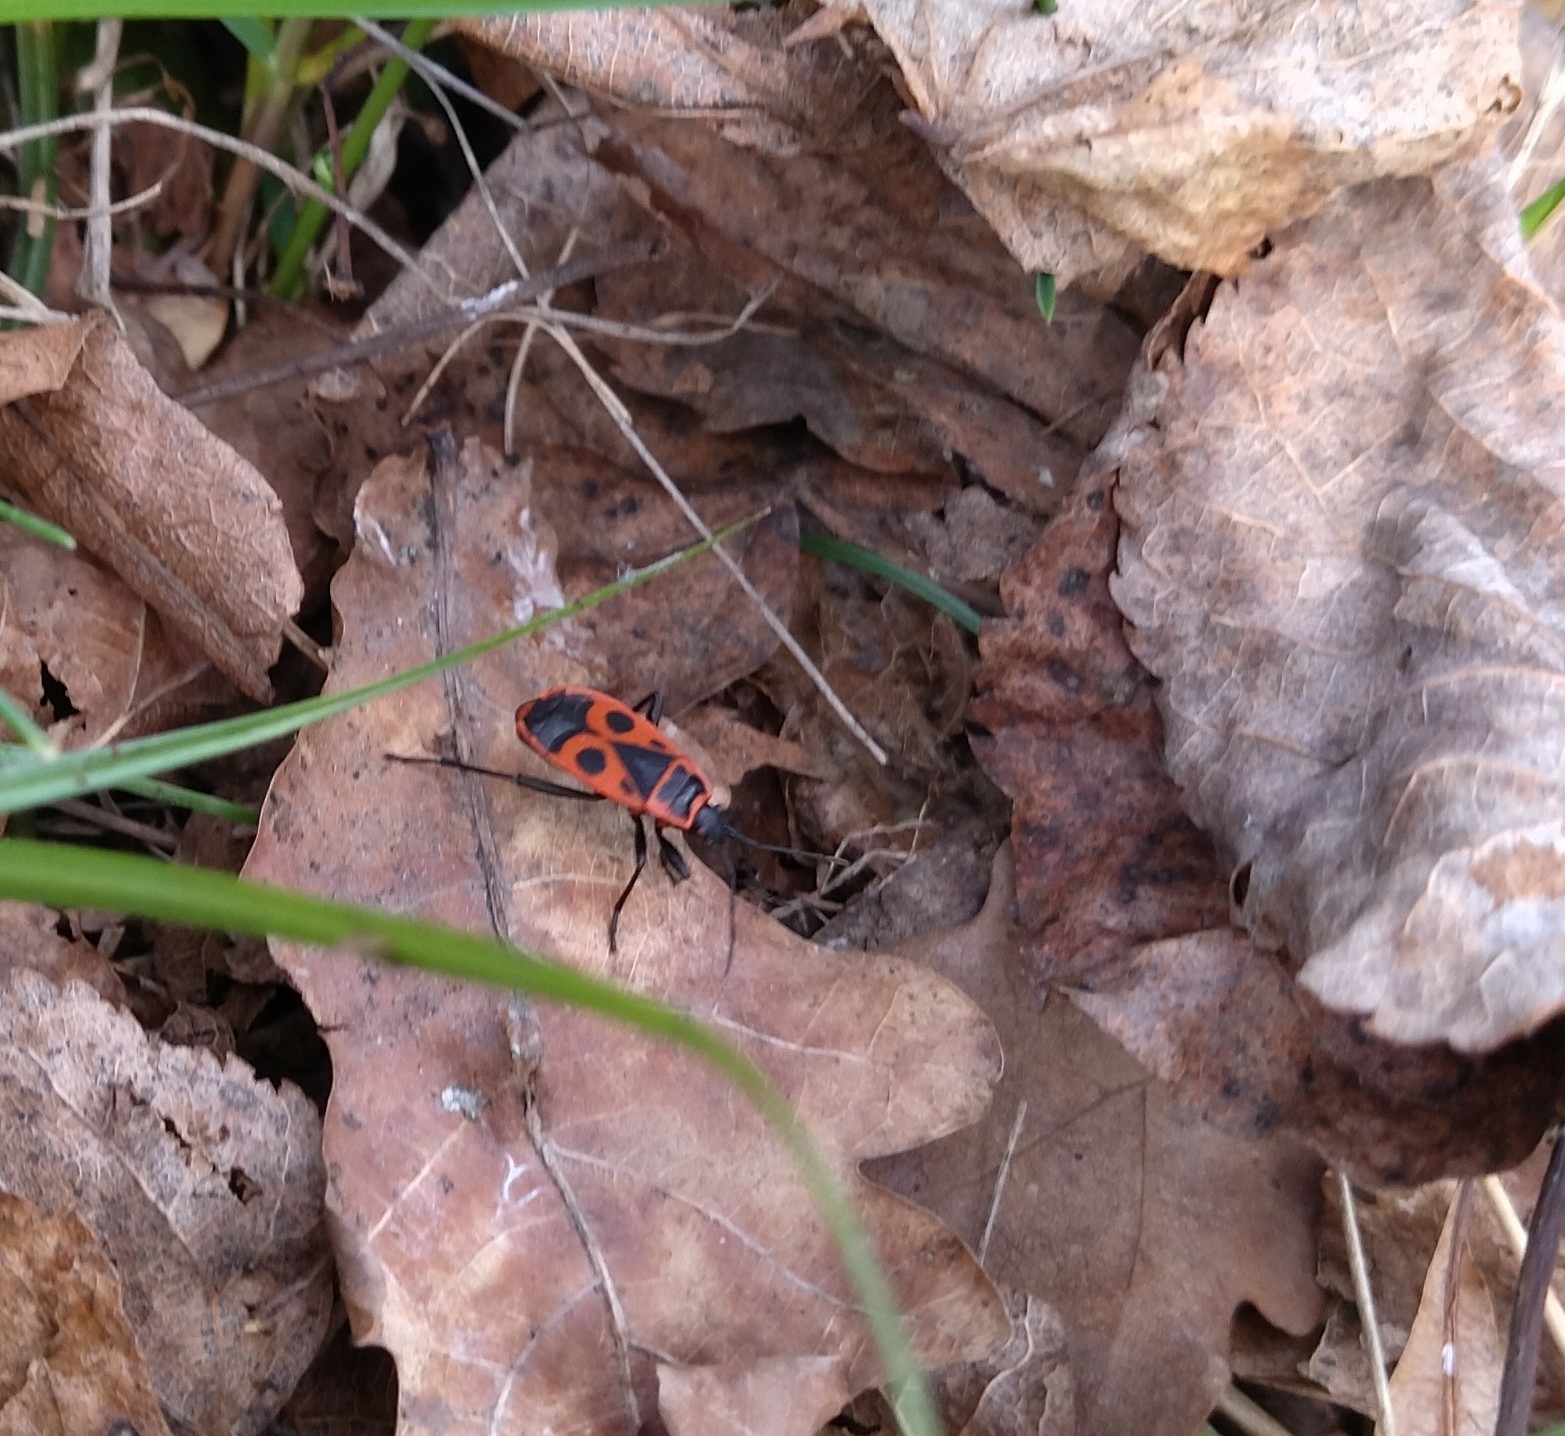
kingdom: Animalia
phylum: Arthropoda
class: Insecta
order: Hemiptera
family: Pyrrhocoridae
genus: Pyrrhocoris
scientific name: Pyrrhocoris apterus
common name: Firebug
